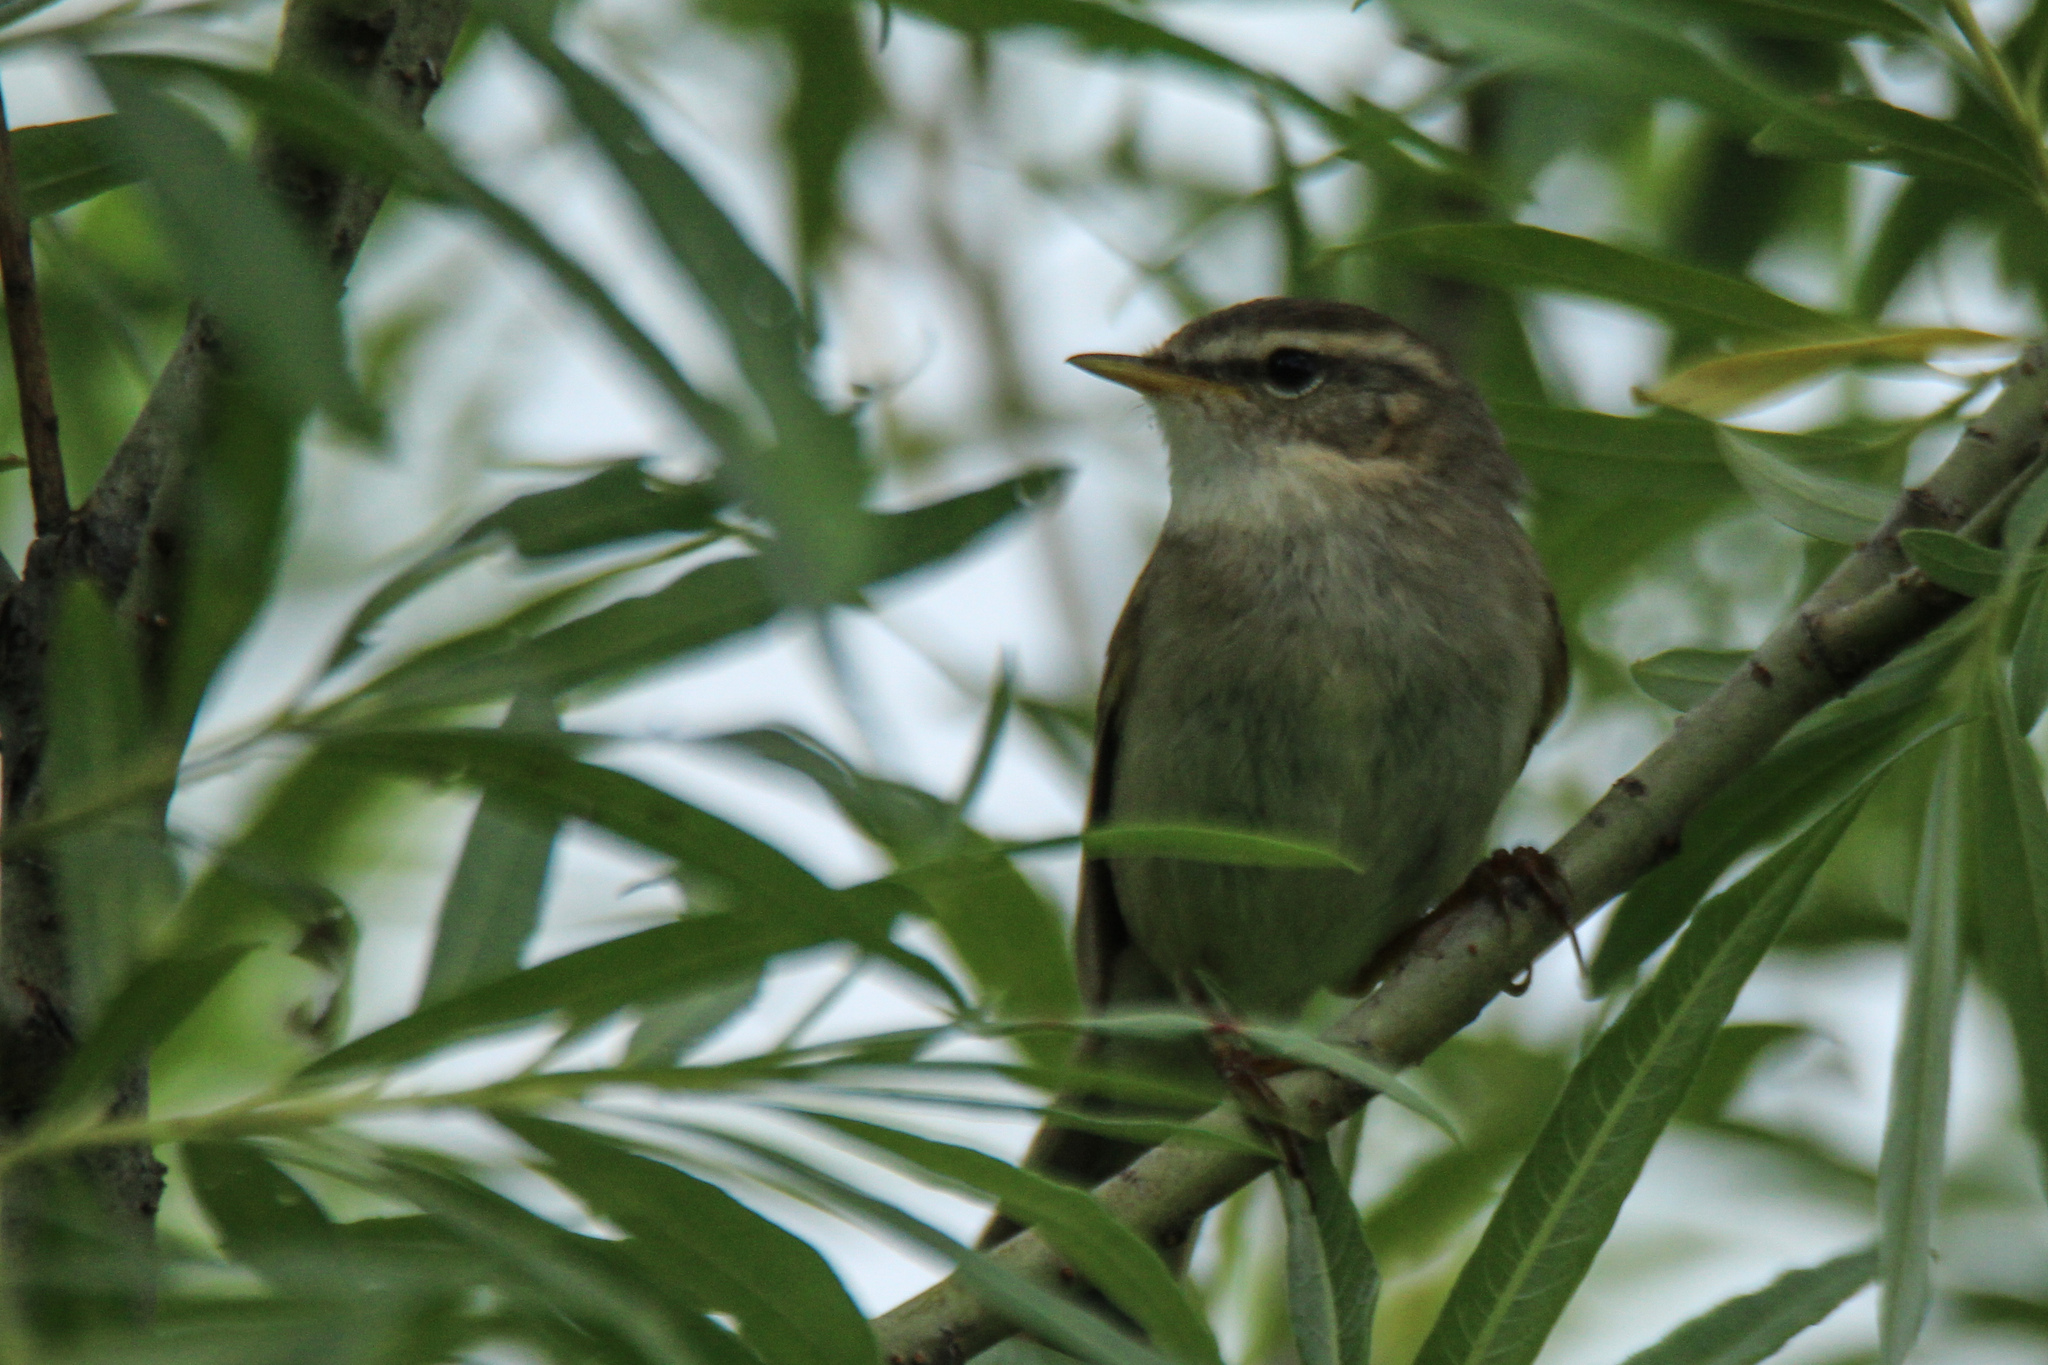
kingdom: Animalia
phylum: Chordata
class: Aves
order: Passeriformes
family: Phylloscopidae
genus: Phylloscopus
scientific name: Phylloscopus fuscatus
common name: Dusky warbler
